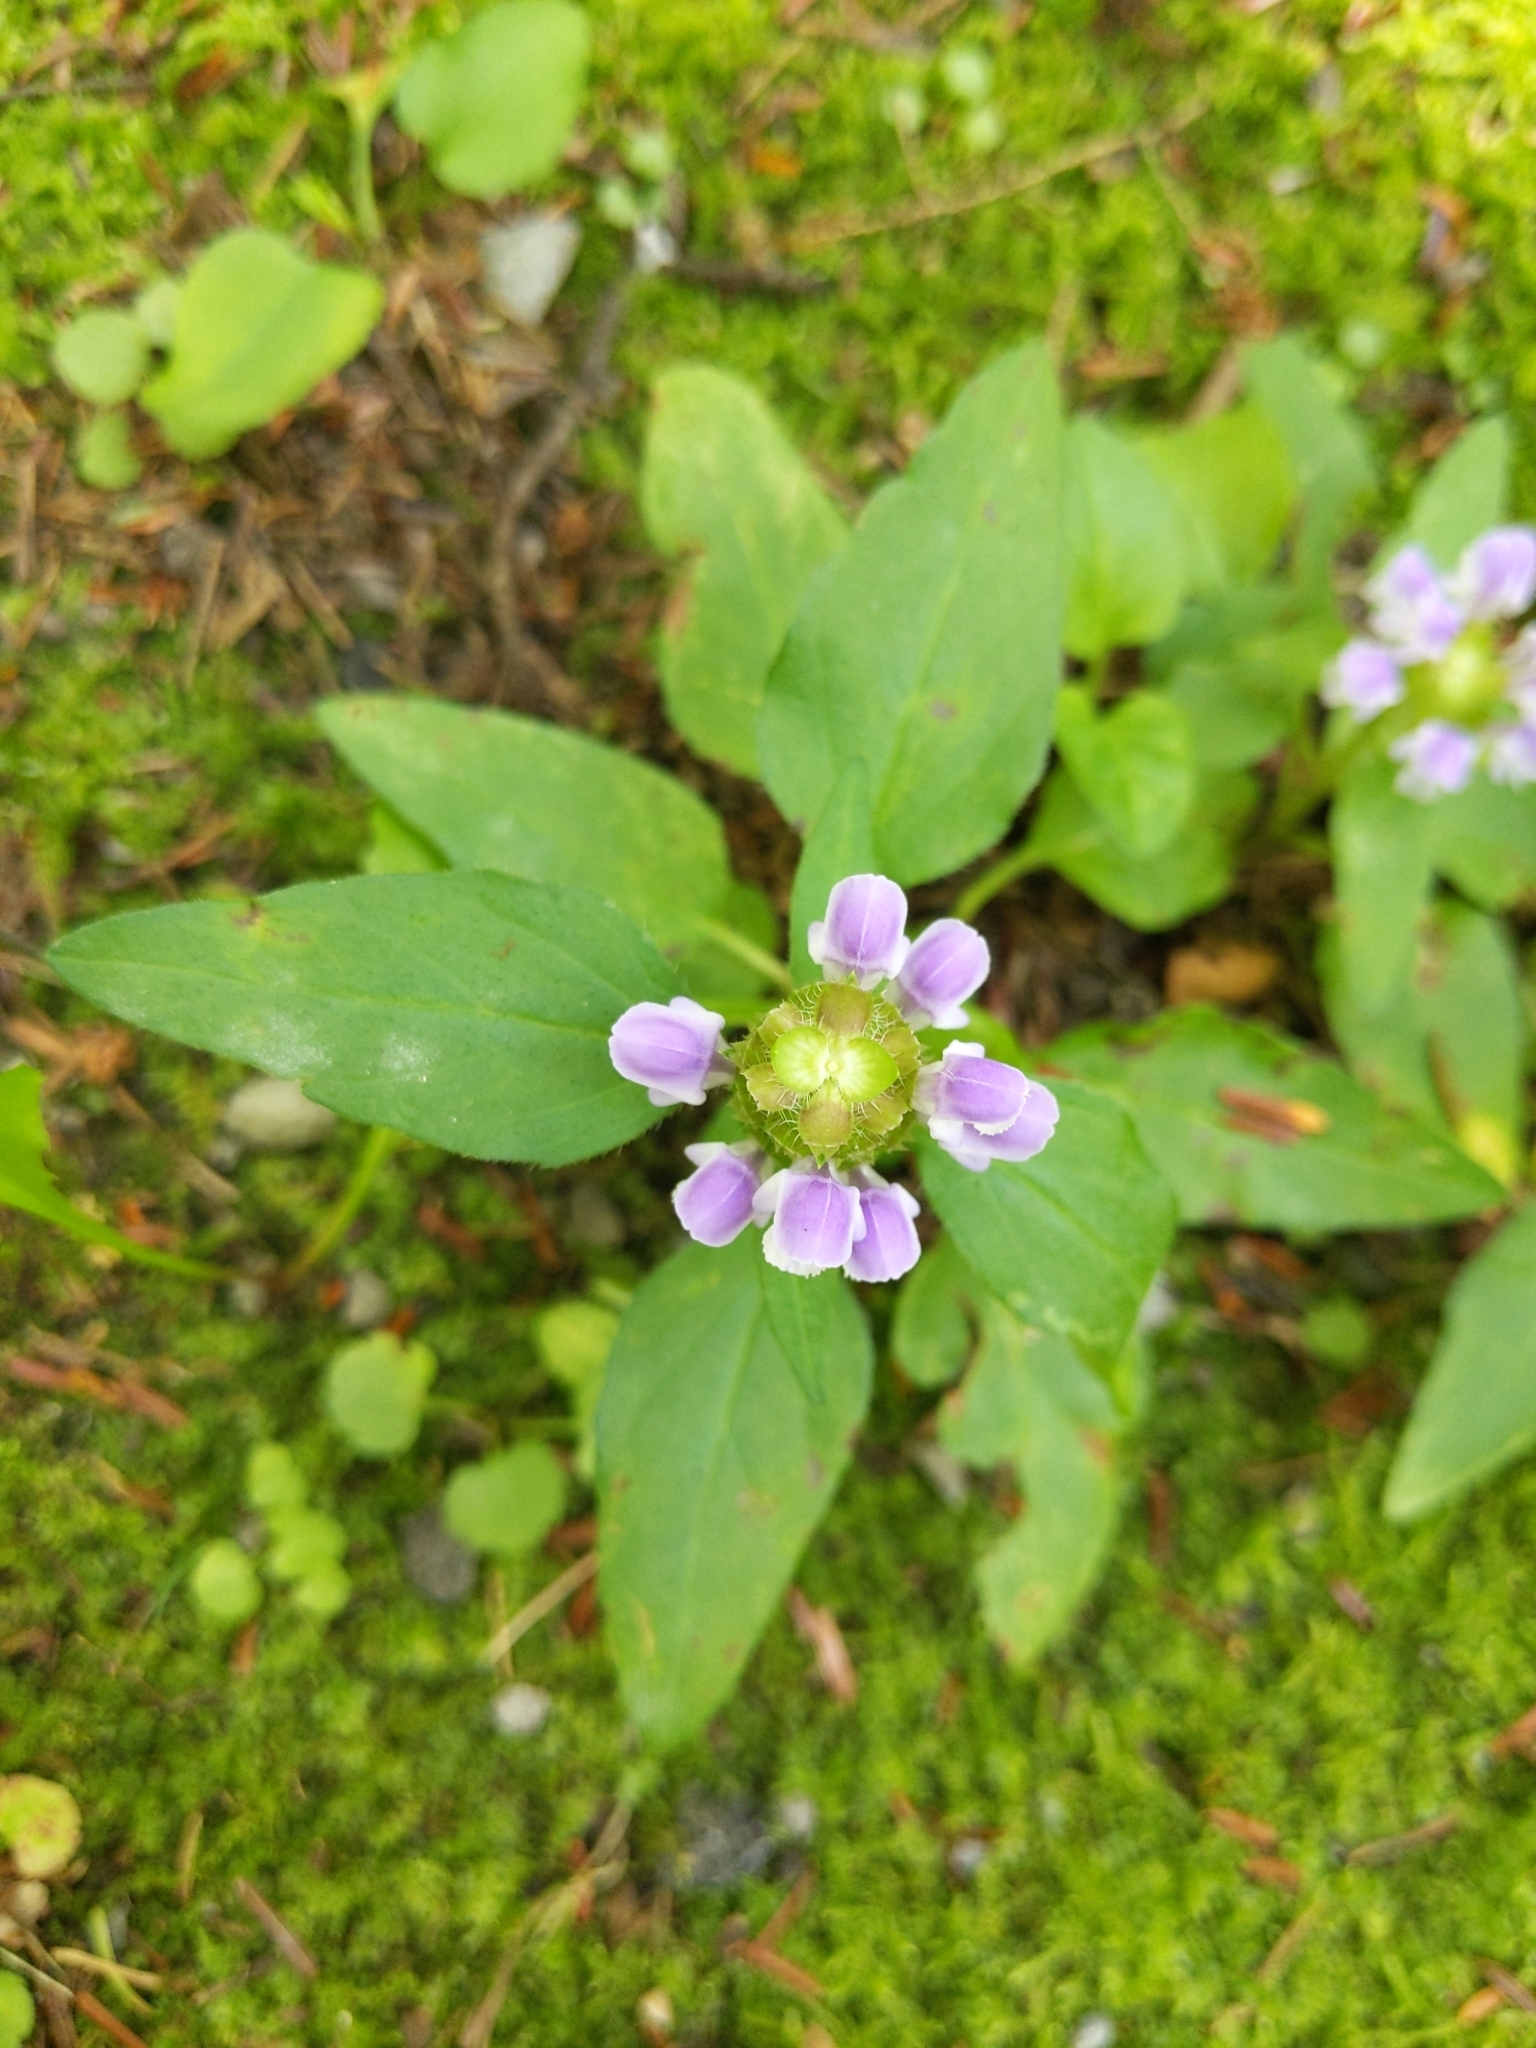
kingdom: Plantae
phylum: Tracheophyta
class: Magnoliopsida
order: Lamiales
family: Lamiaceae
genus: Prunella
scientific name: Prunella vulgaris
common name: Heal-all
